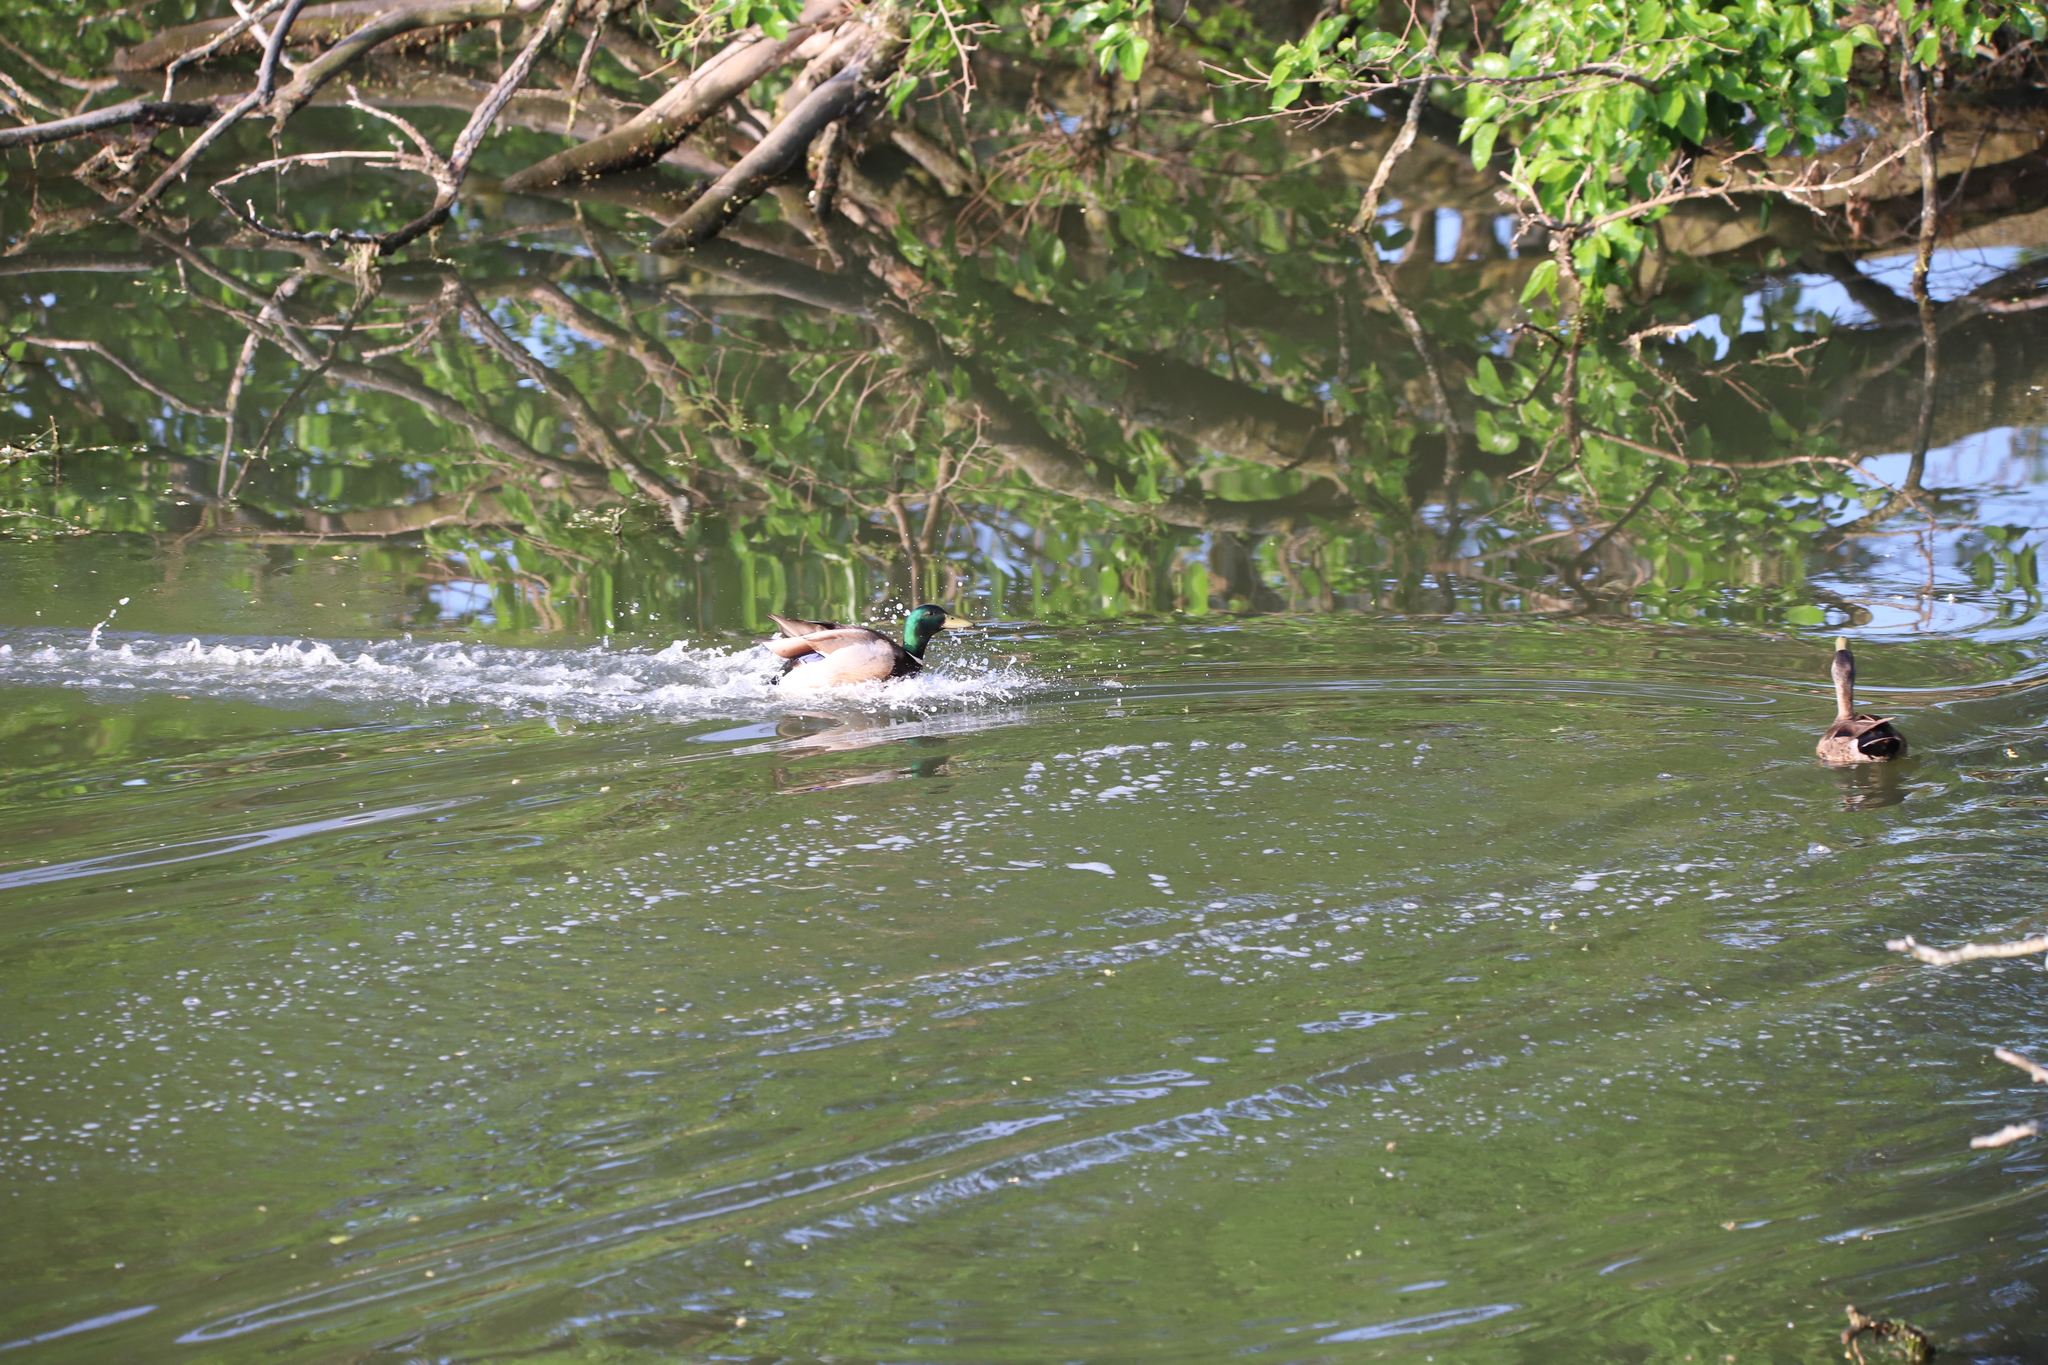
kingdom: Animalia
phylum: Chordata
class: Aves
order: Anseriformes
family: Anatidae
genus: Anas
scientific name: Anas platyrhynchos
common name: Mallard
